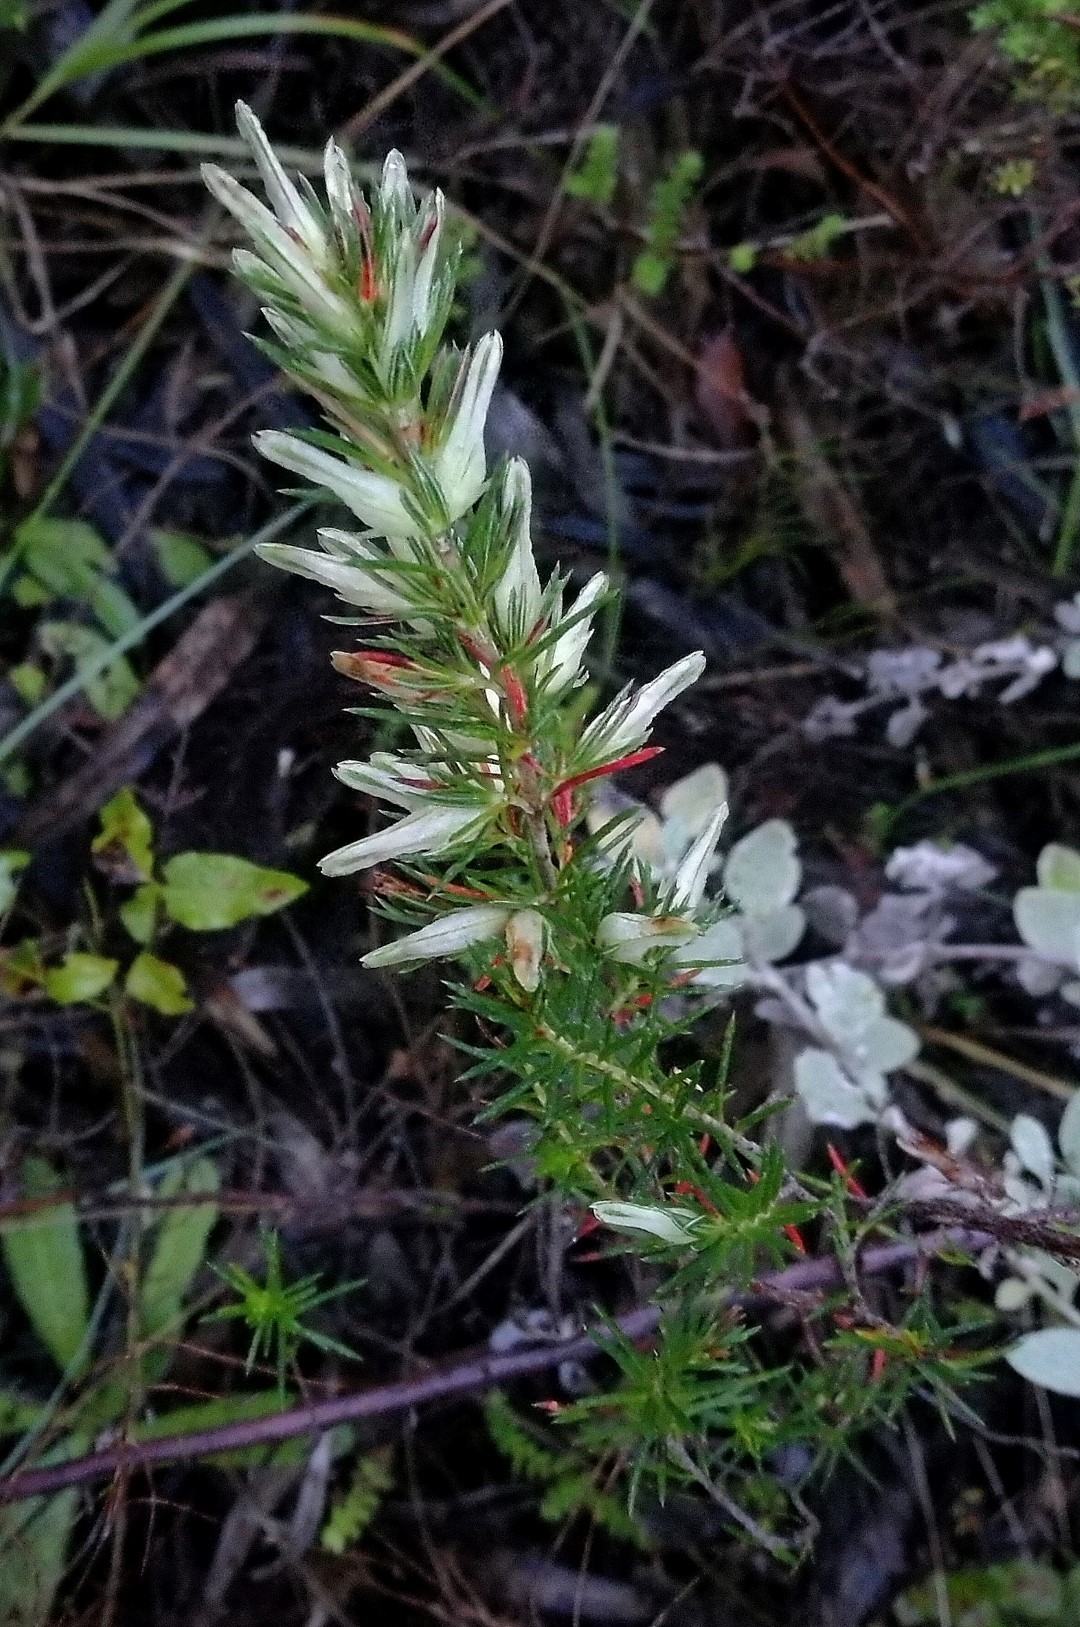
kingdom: Plantae
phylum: Tracheophyta
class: Magnoliopsida
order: Ericales
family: Ericaceae
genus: Erica
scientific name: Erica nabea
